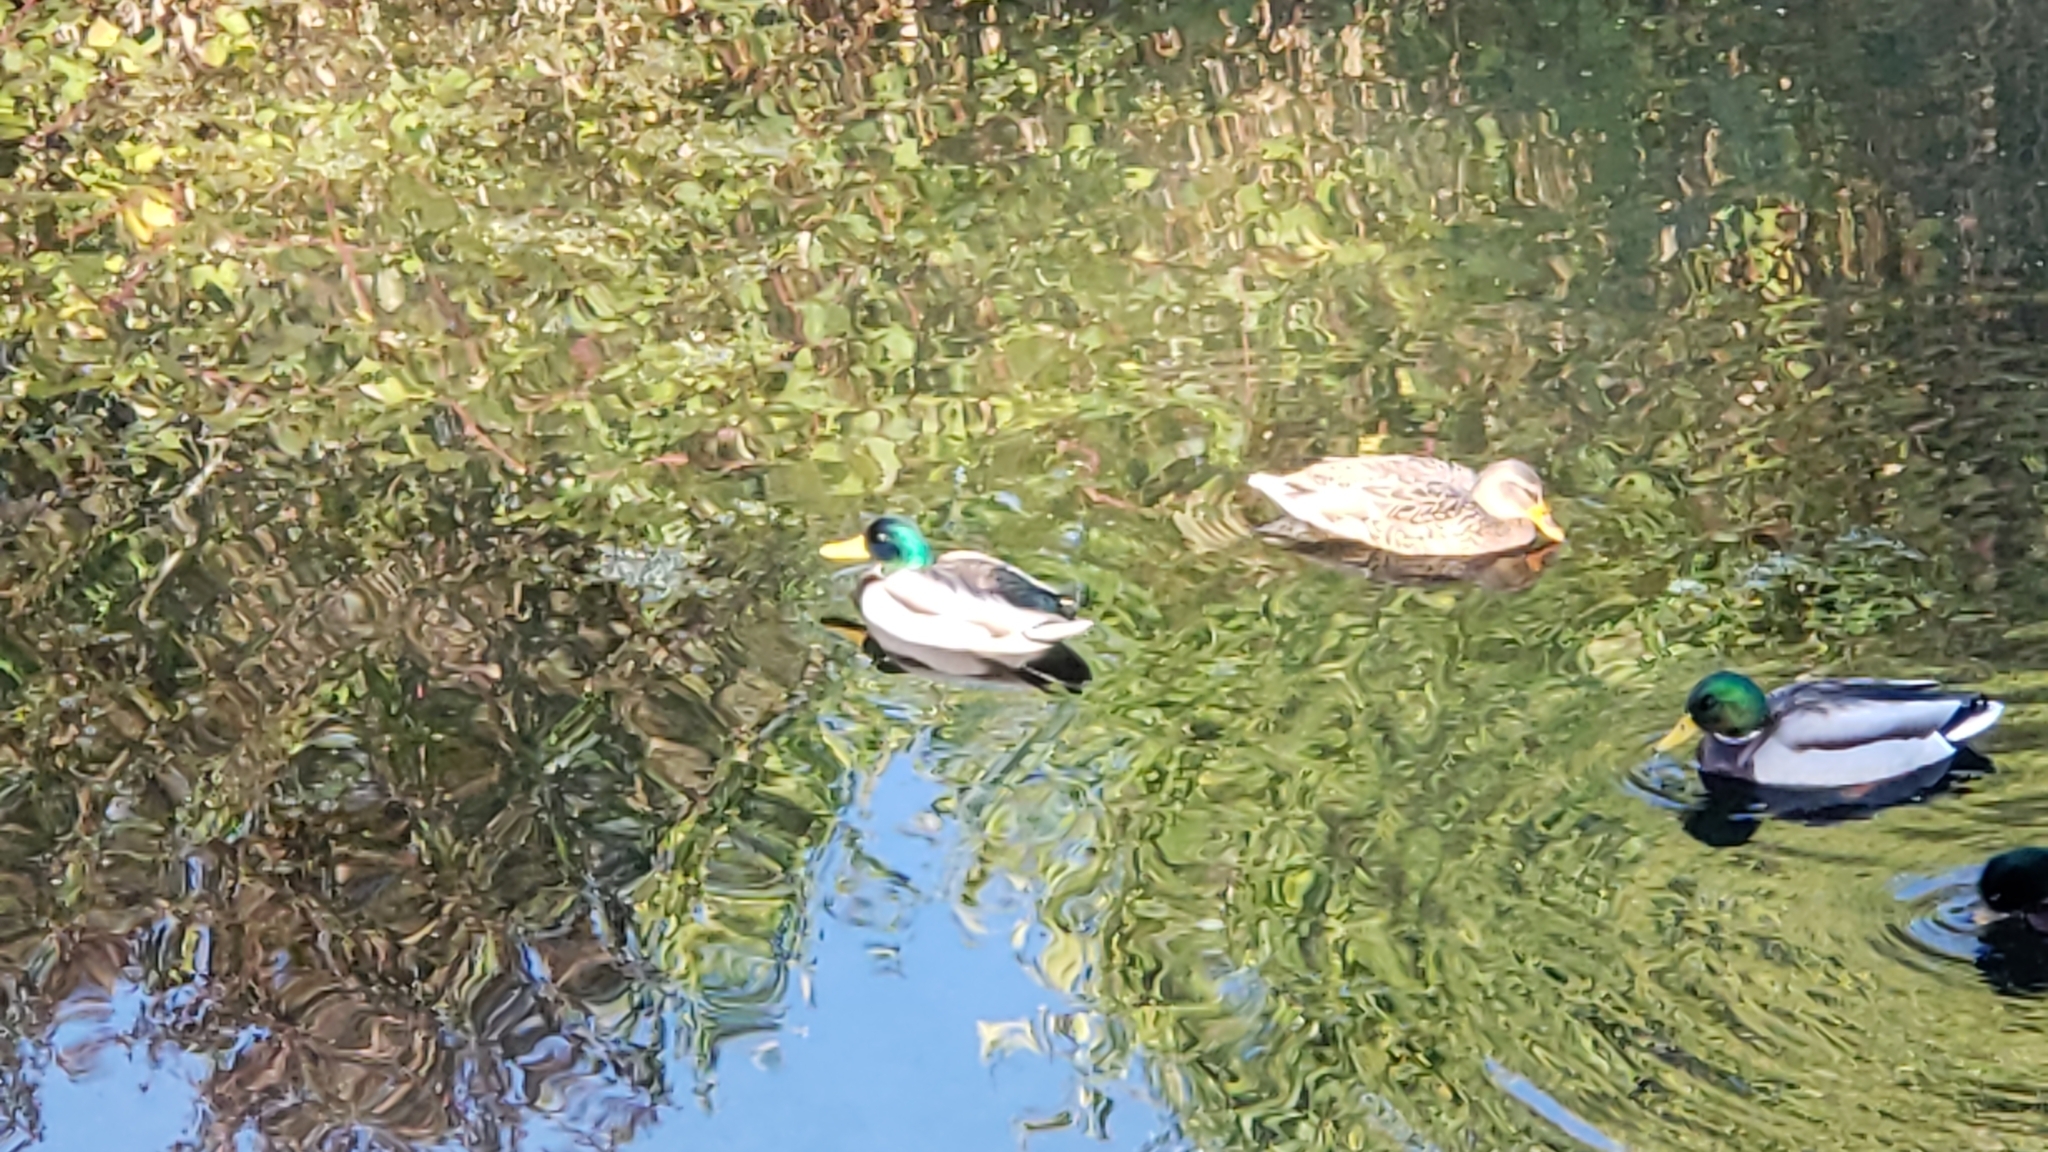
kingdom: Animalia
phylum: Chordata
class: Aves
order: Anseriformes
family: Anatidae
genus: Anas
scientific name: Anas platyrhynchos
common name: Mallard
